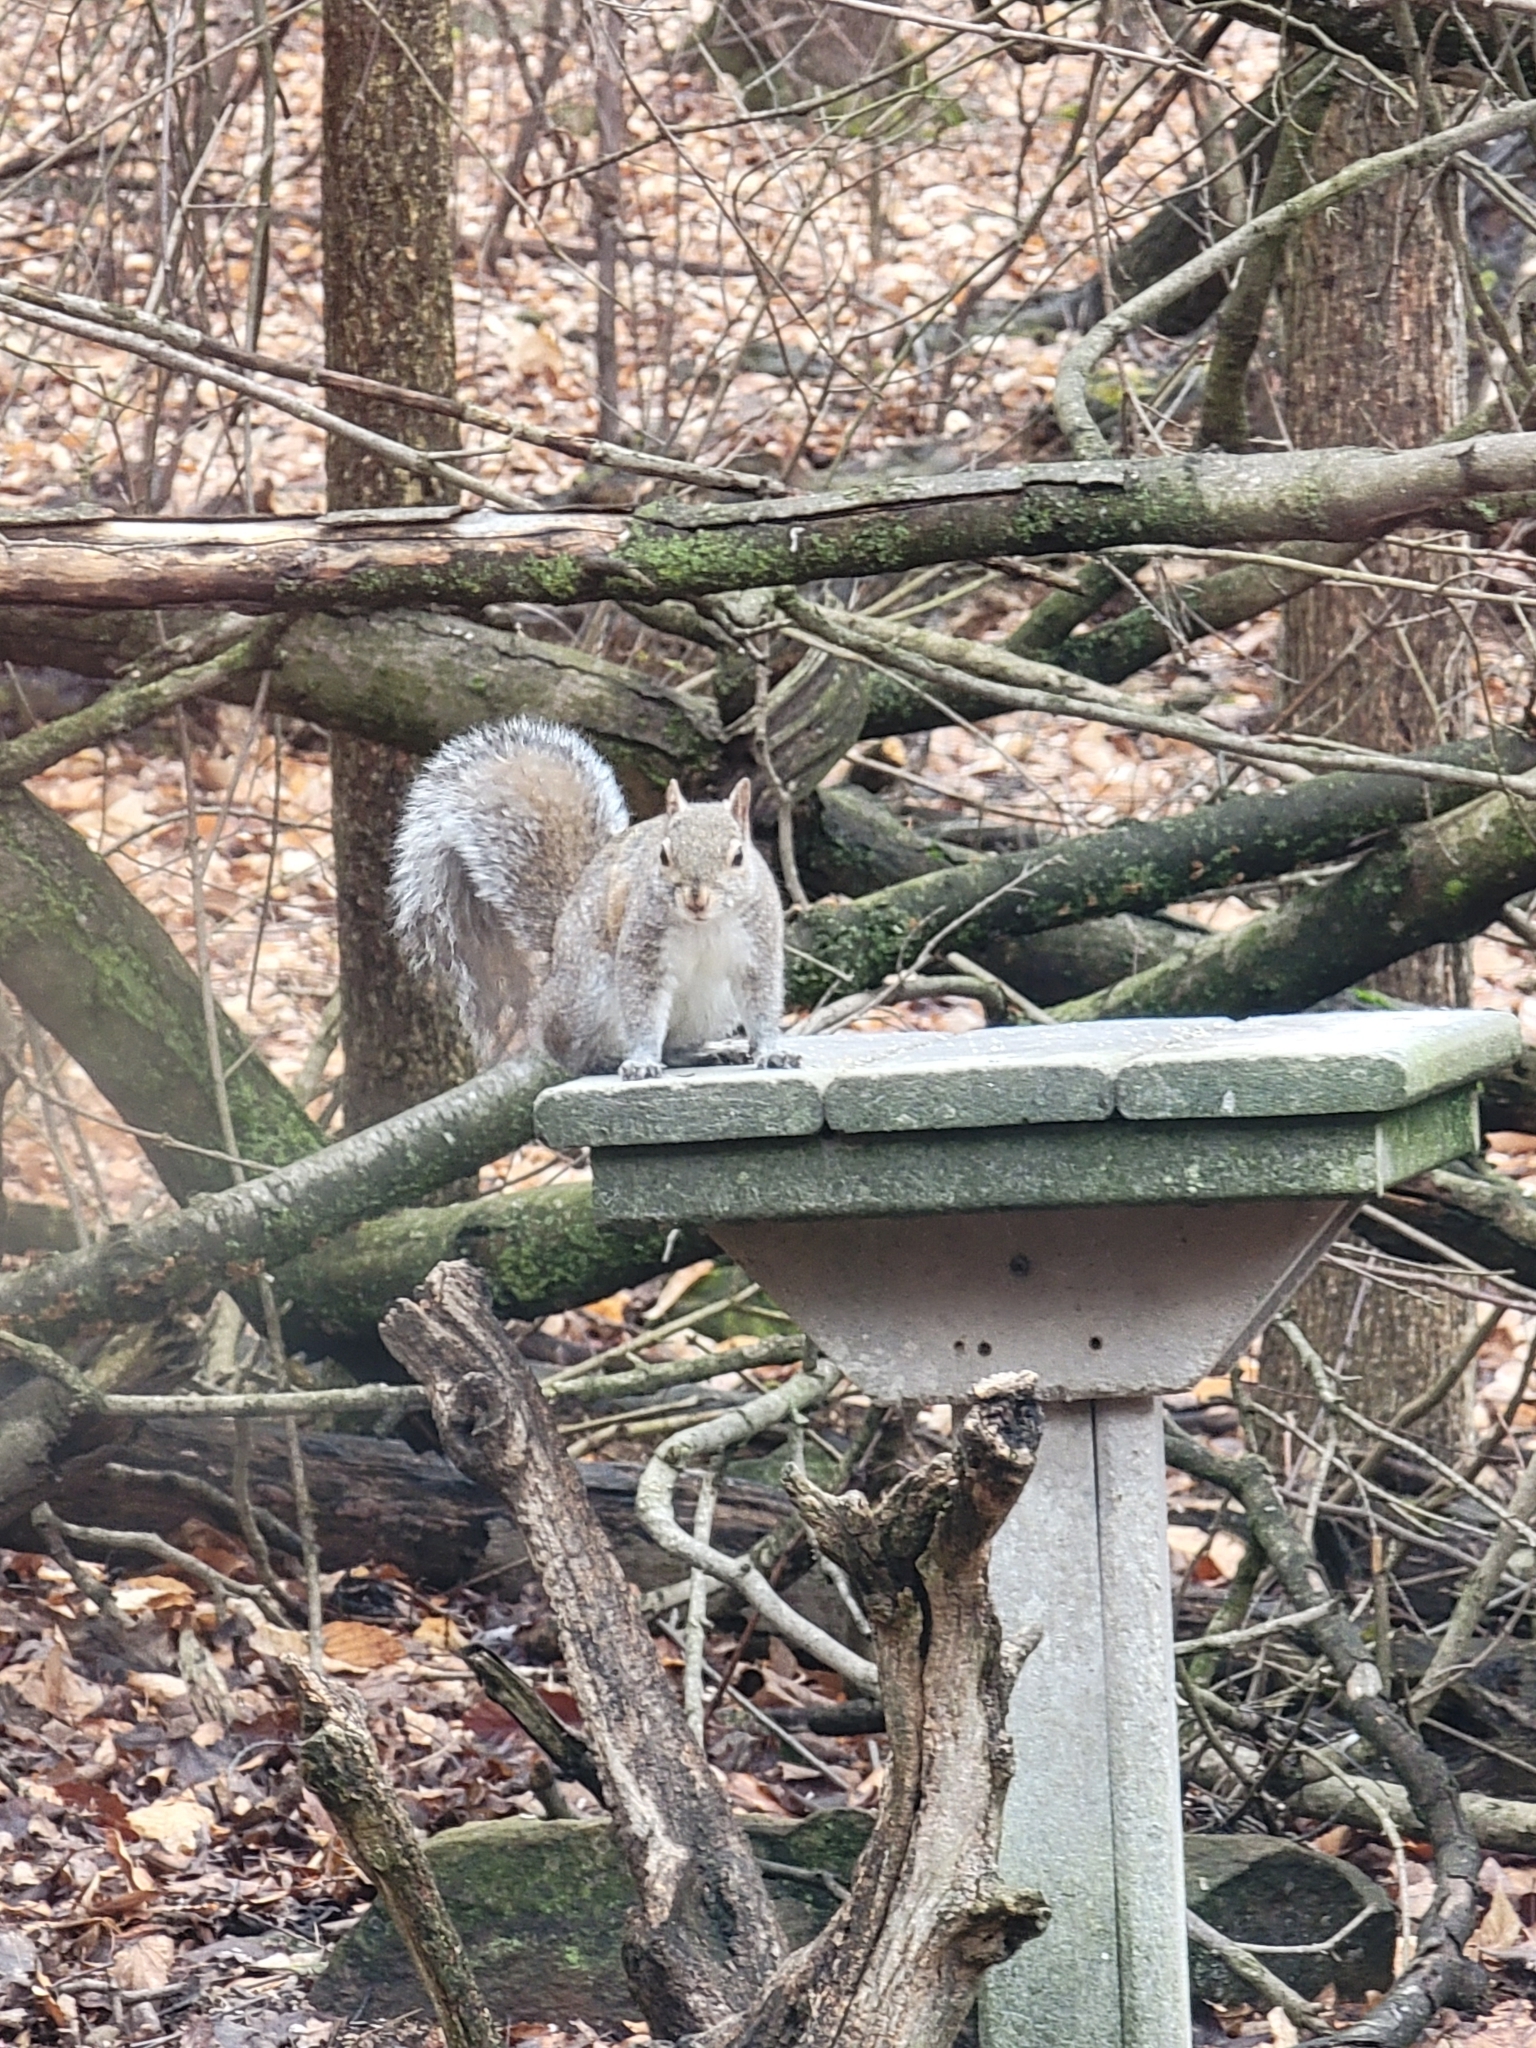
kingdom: Animalia
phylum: Chordata
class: Mammalia
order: Rodentia
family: Sciuridae
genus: Sciurus
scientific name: Sciurus carolinensis
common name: Eastern gray squirrel
